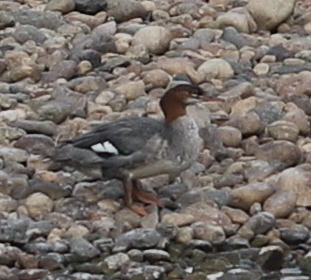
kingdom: Animalia
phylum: Chordata
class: Aves
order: Anseriformes
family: Anatidae
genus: Mergus
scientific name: Mergus merganser
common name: Common merganser
